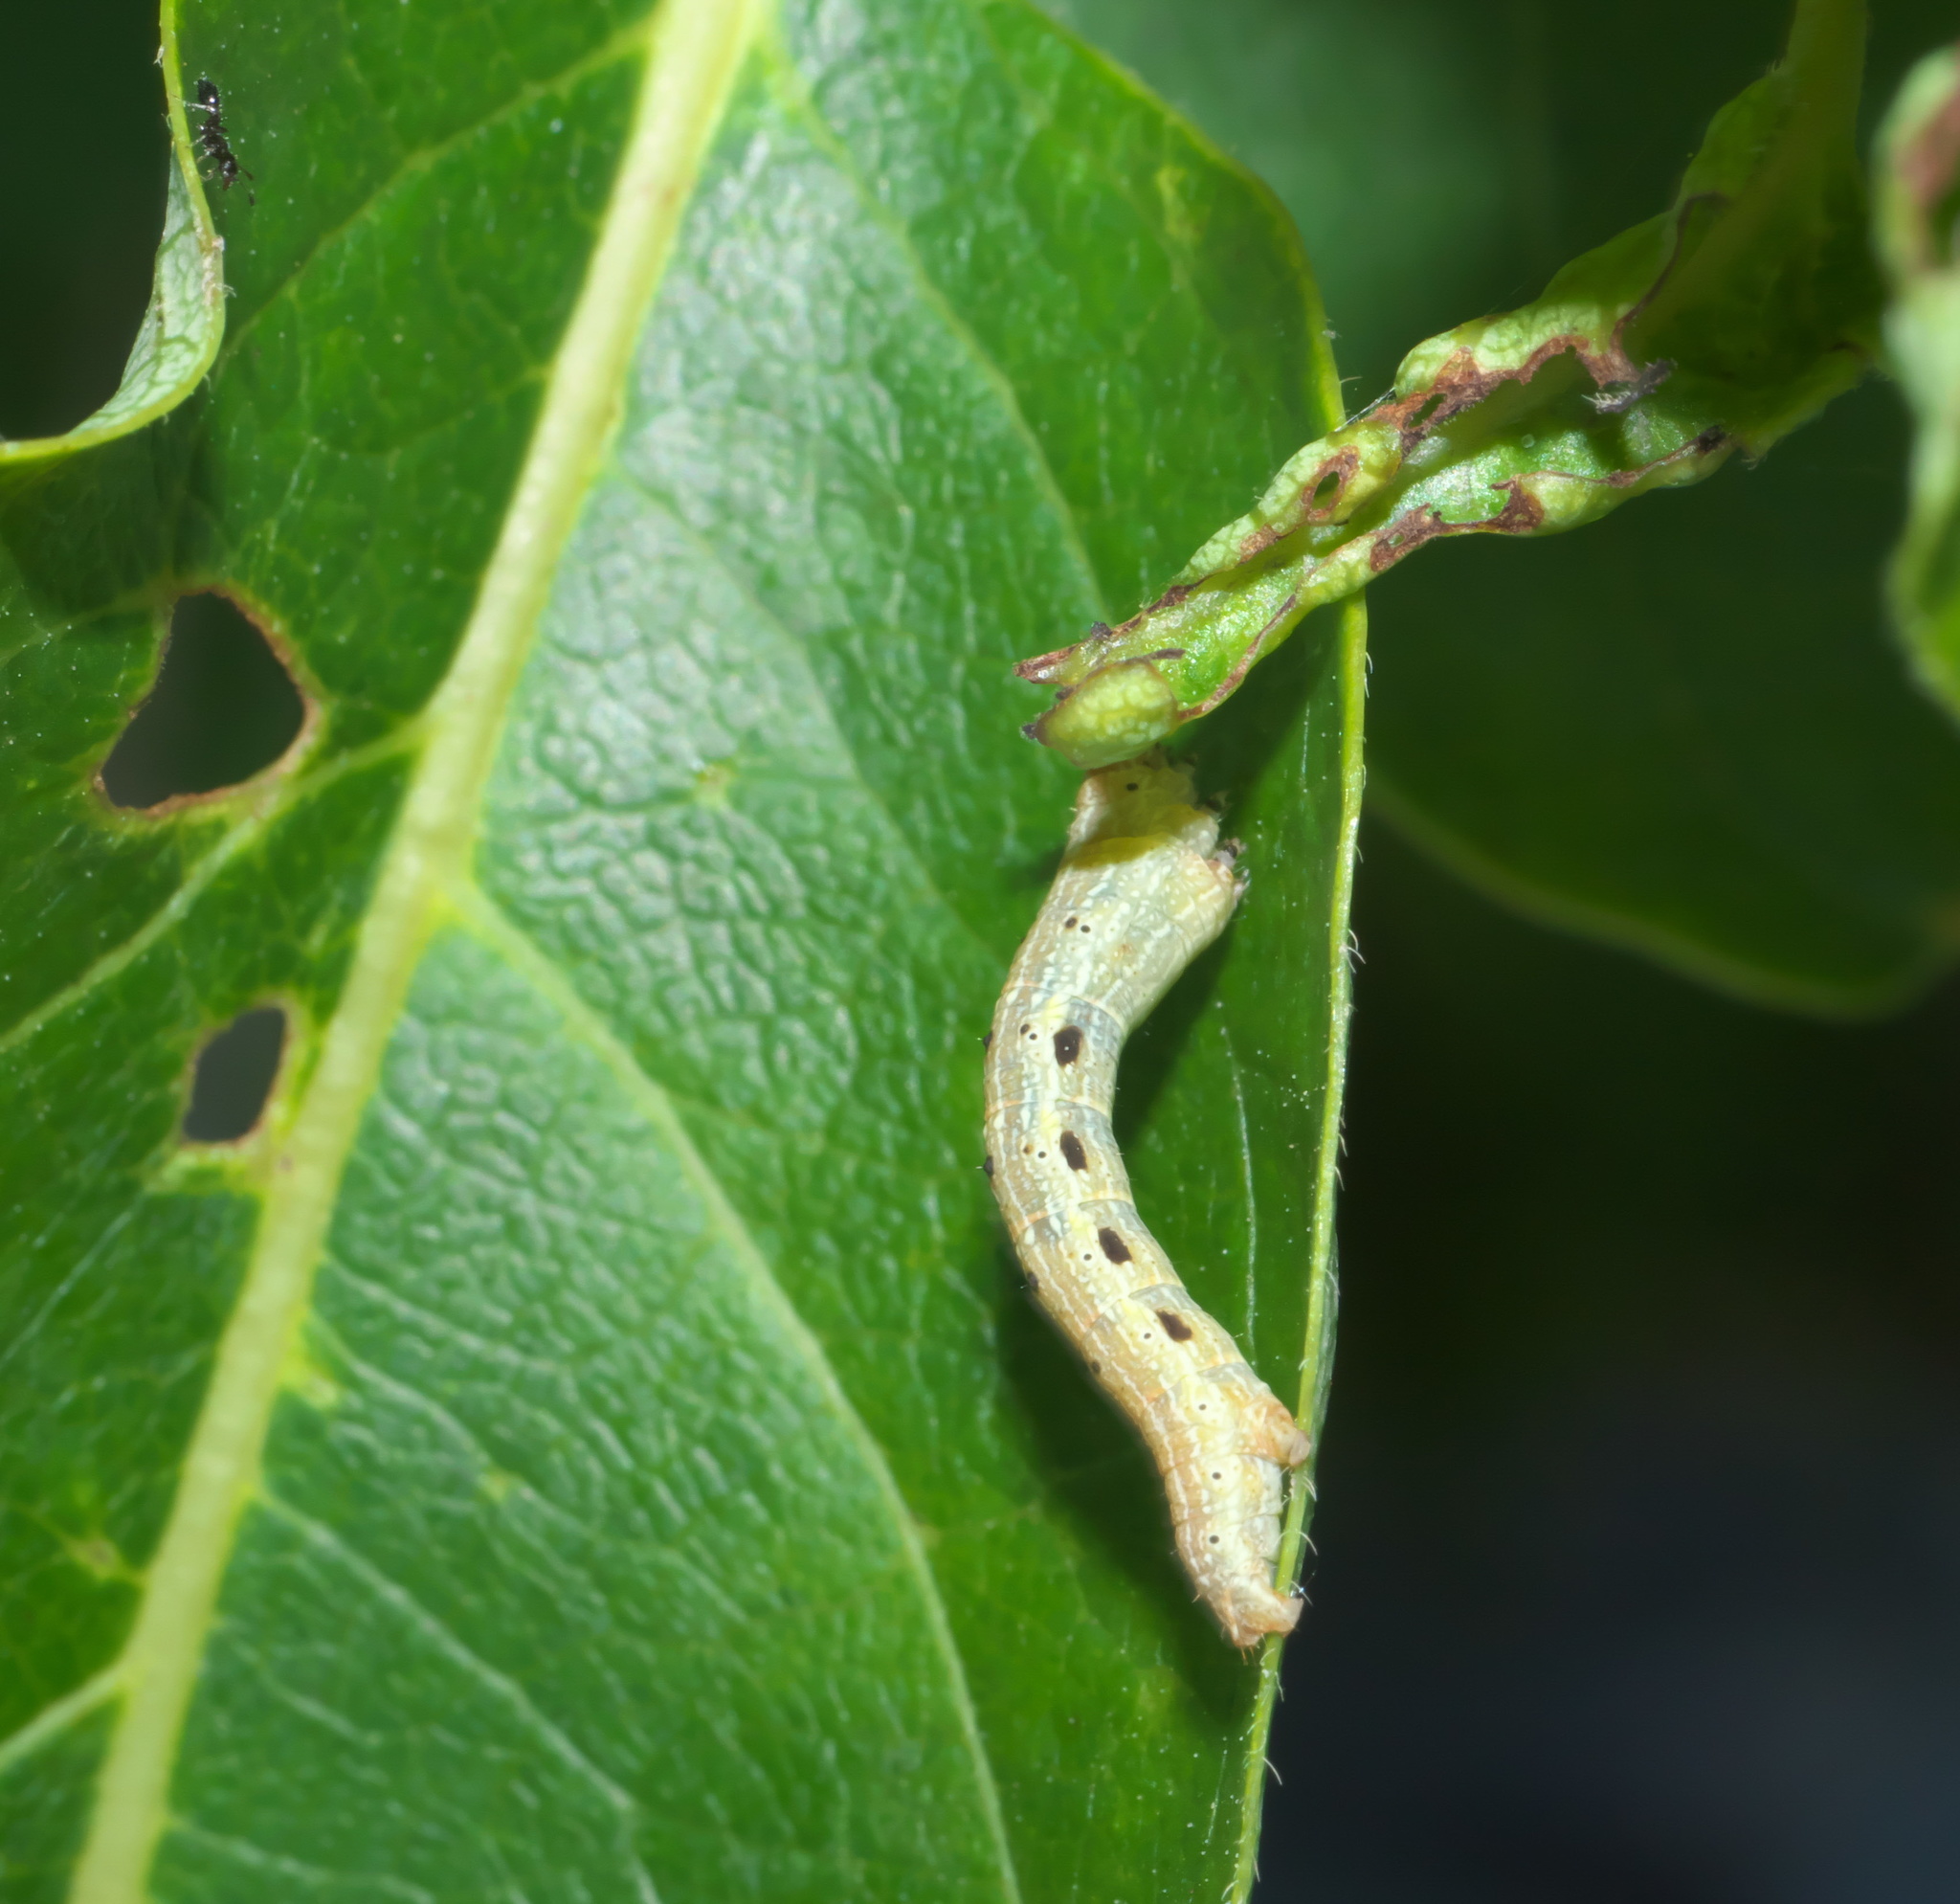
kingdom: Animalia
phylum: Arthropoda
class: Insecta
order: Lepidoptera
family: Geometridae
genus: Epimecis
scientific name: Epimecis hortaria
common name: Tulip-tree beauty
